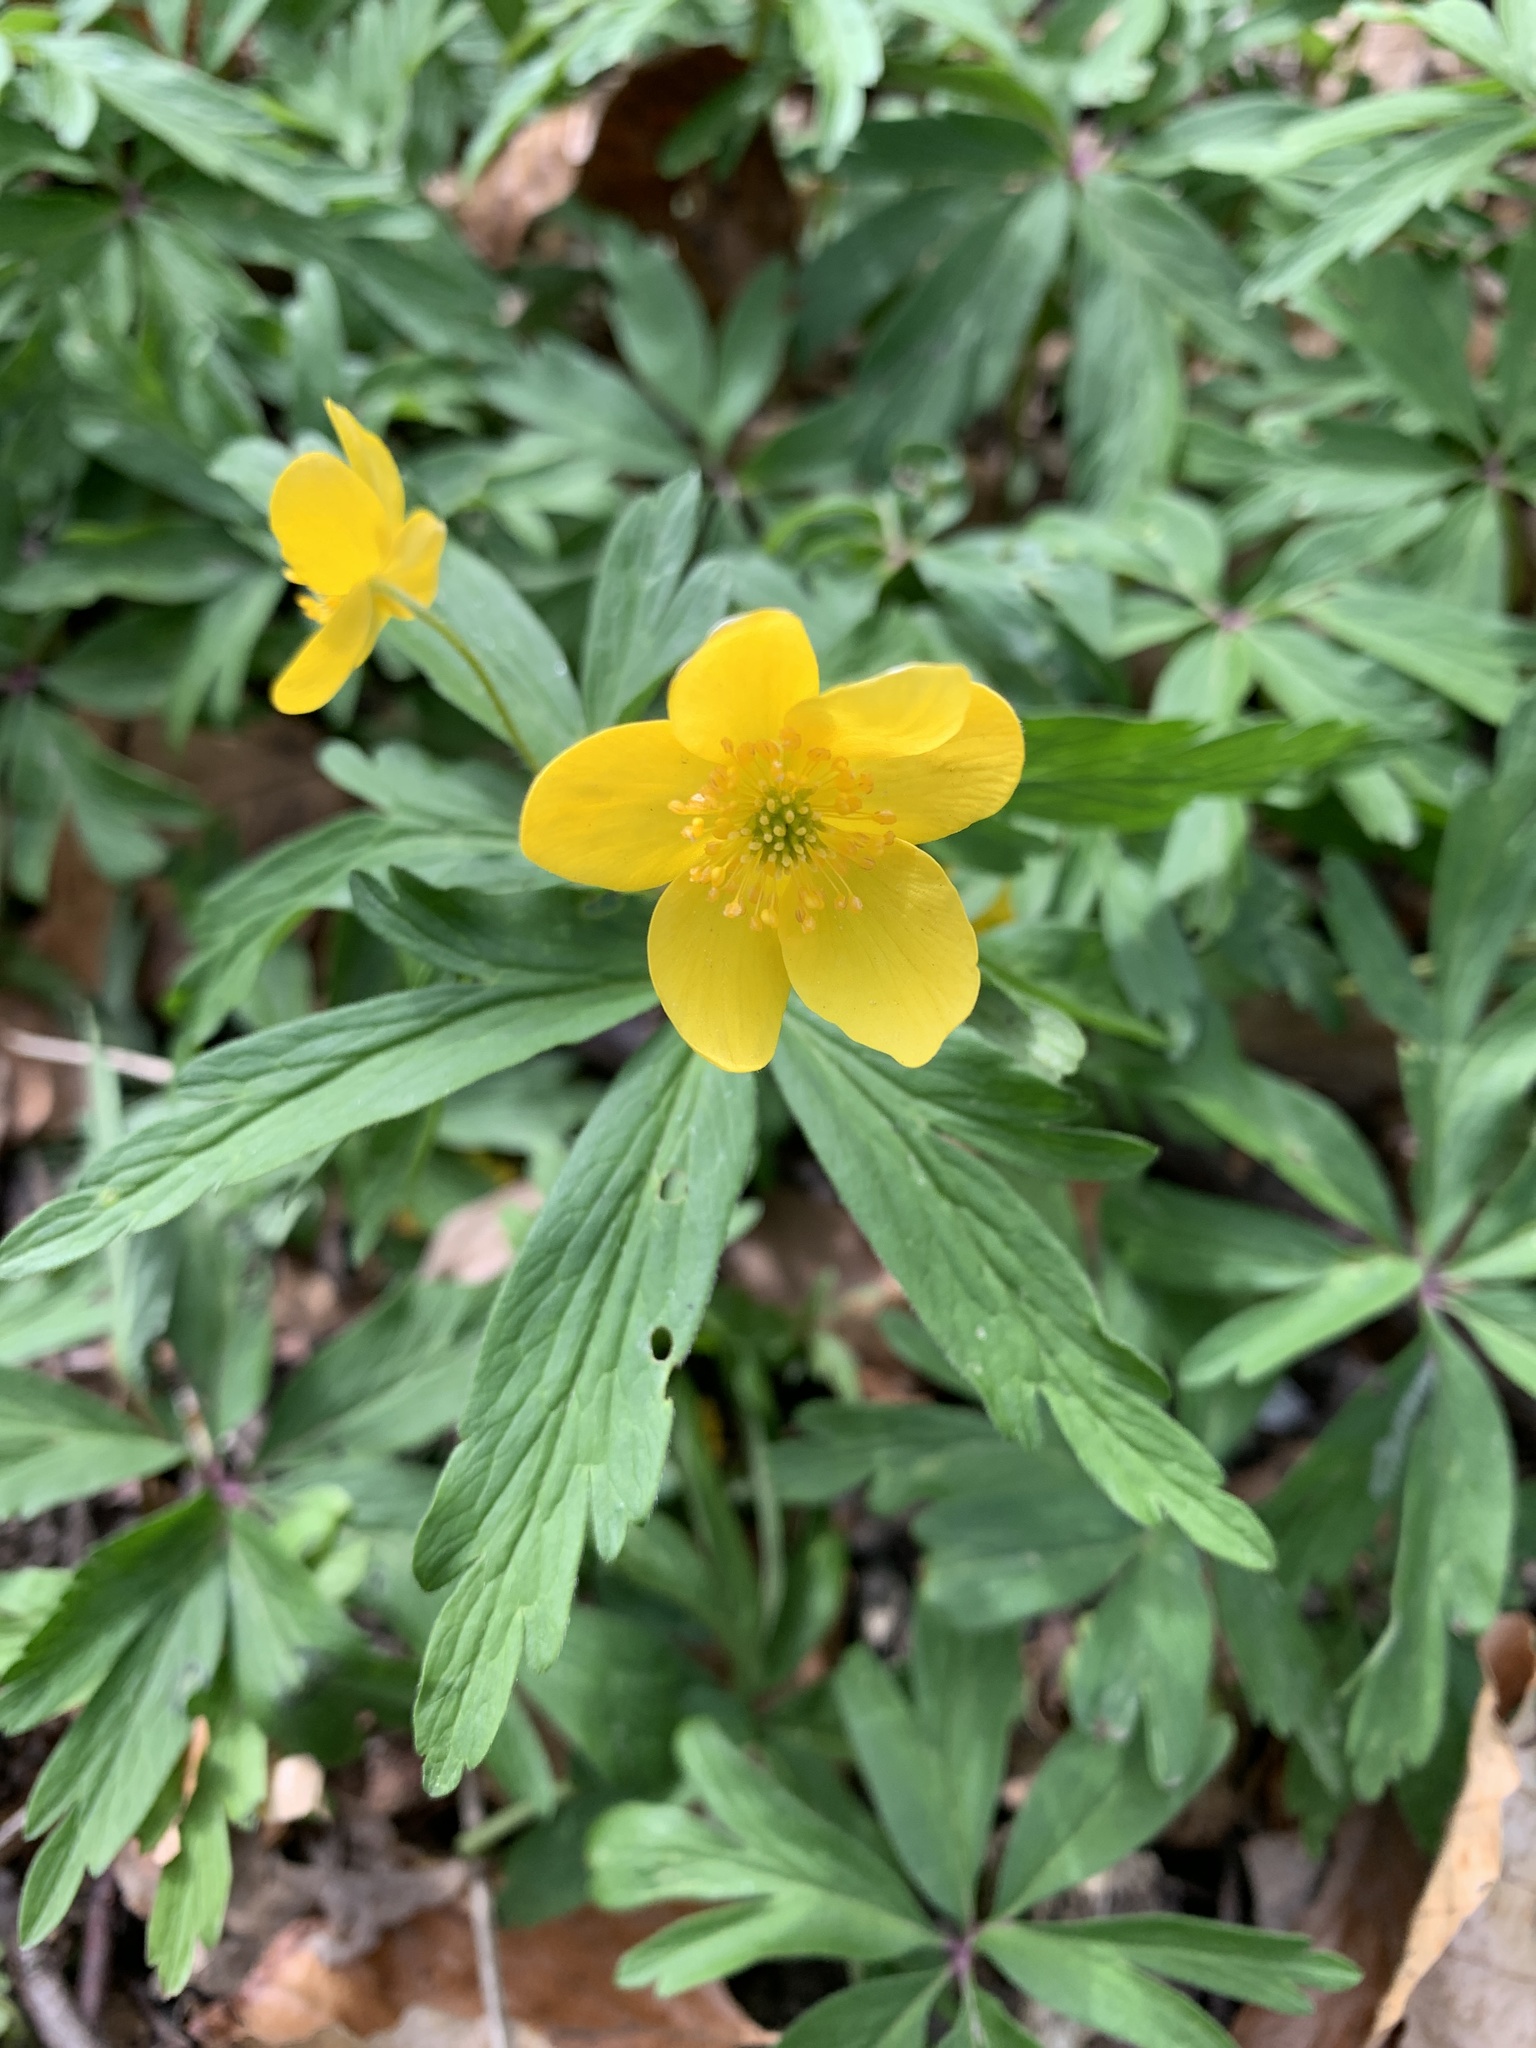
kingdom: Plantae
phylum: Tracheophyta
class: Magnoliopsida
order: Ranunculales
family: Ranunculaceae
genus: Anemone
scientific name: Anemone ranunculoides
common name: Yellow anemone
